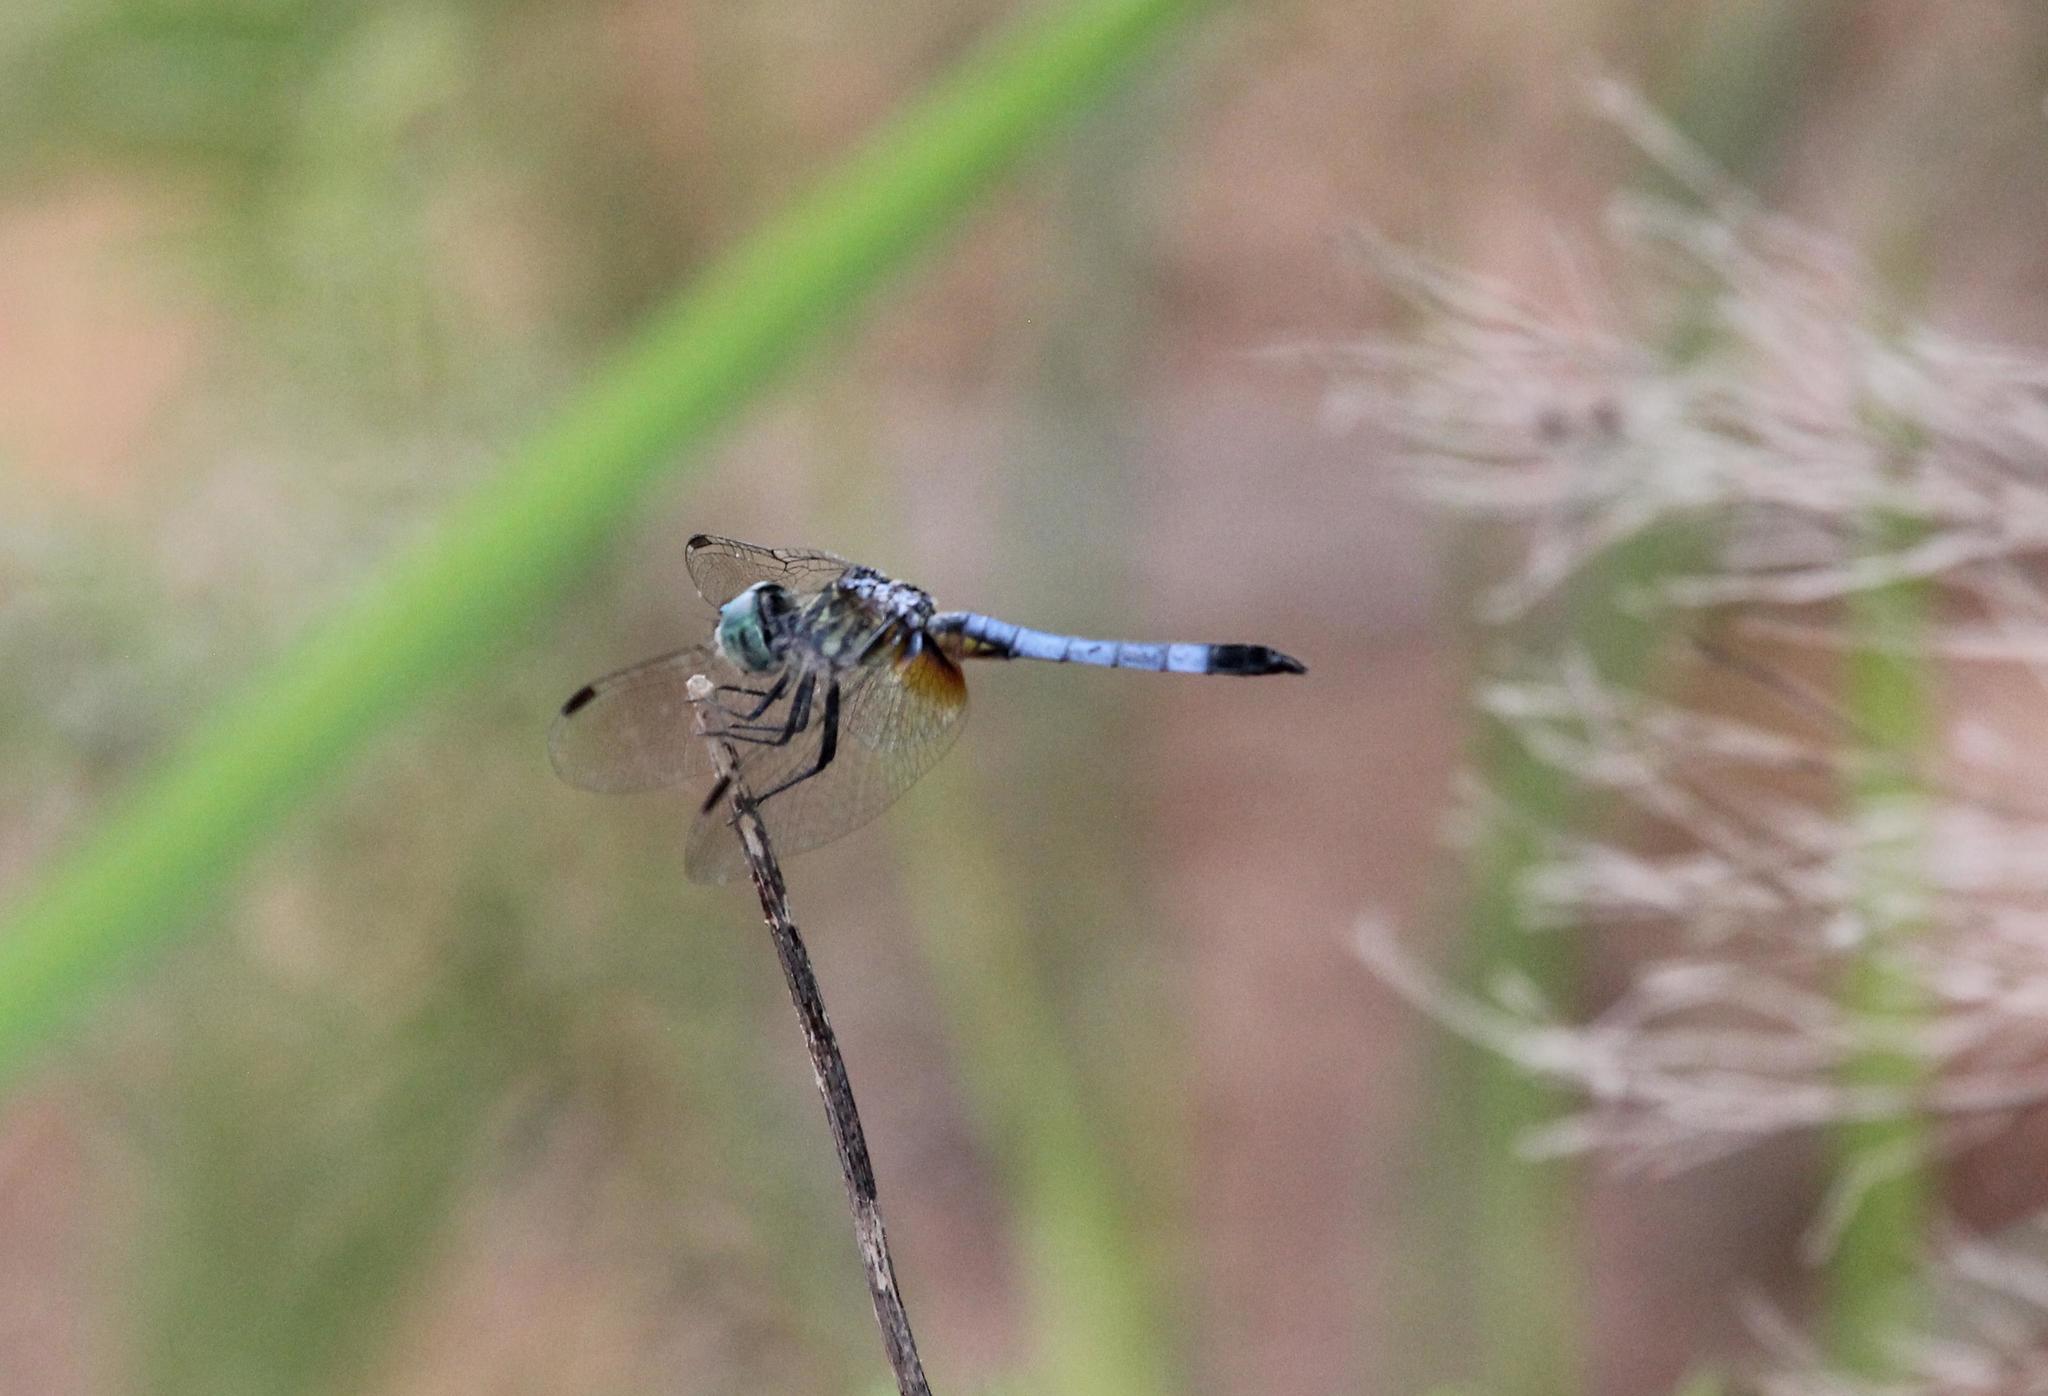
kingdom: Animalia
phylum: Arthropoda
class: Insecta
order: Odonata
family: Libellulidae
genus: Pachydiplax
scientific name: Pachydiplax longipennis
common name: Blue dasher
